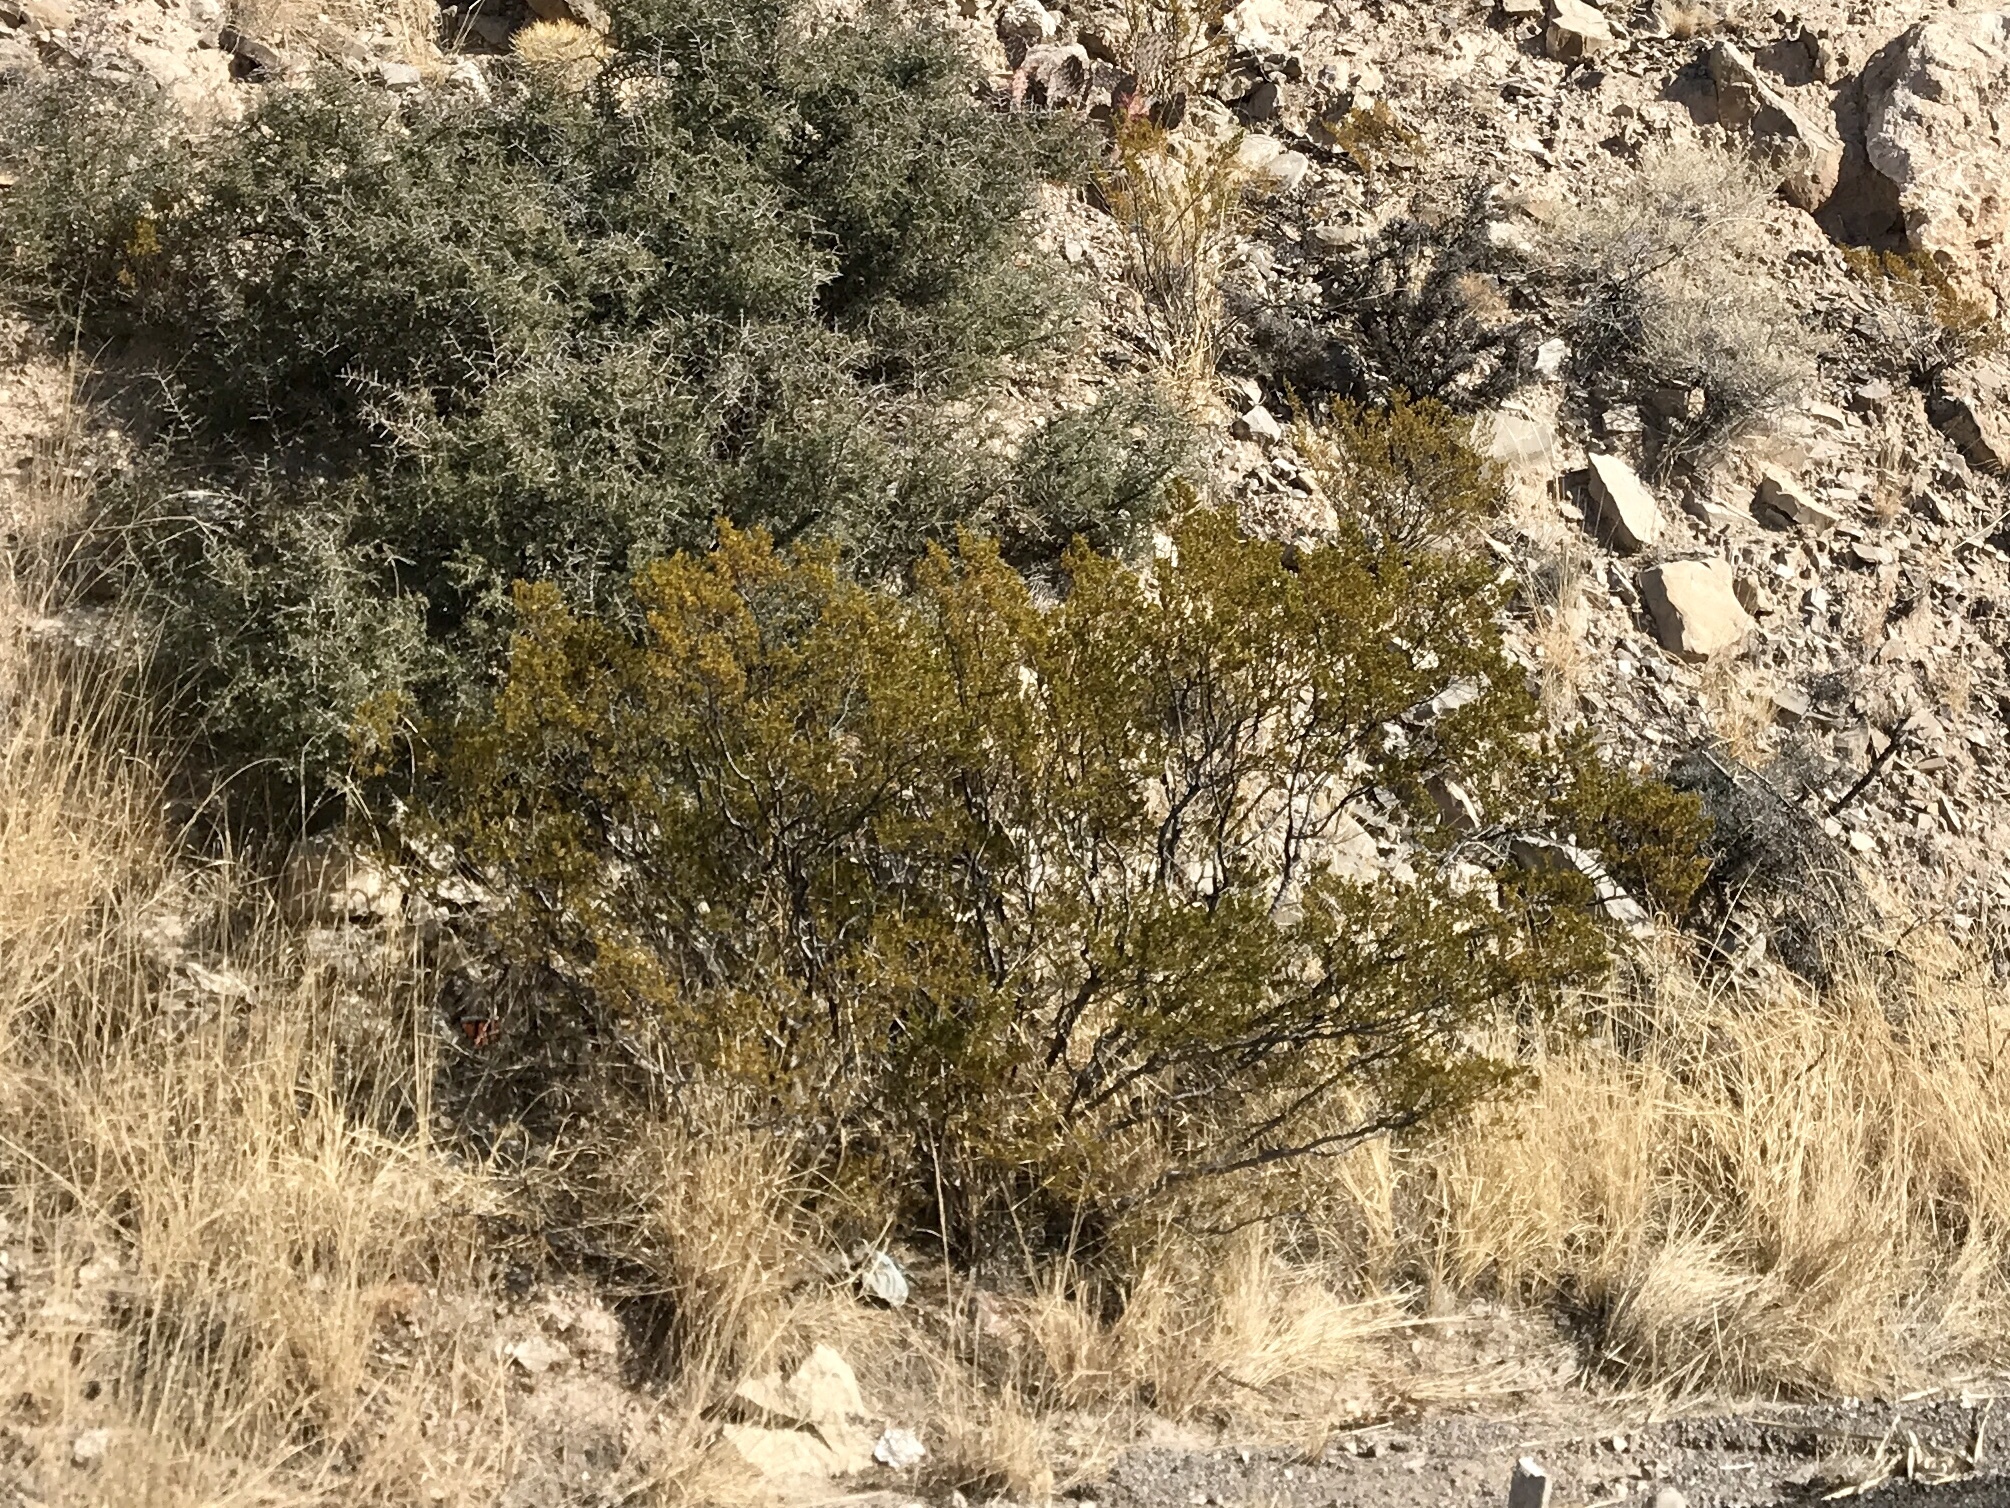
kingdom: Plantae
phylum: Tracheophyta
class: Magnoliopsida
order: Zygophyllales
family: Zygophyllaceae
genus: Larrea
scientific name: Larrea tridentata
